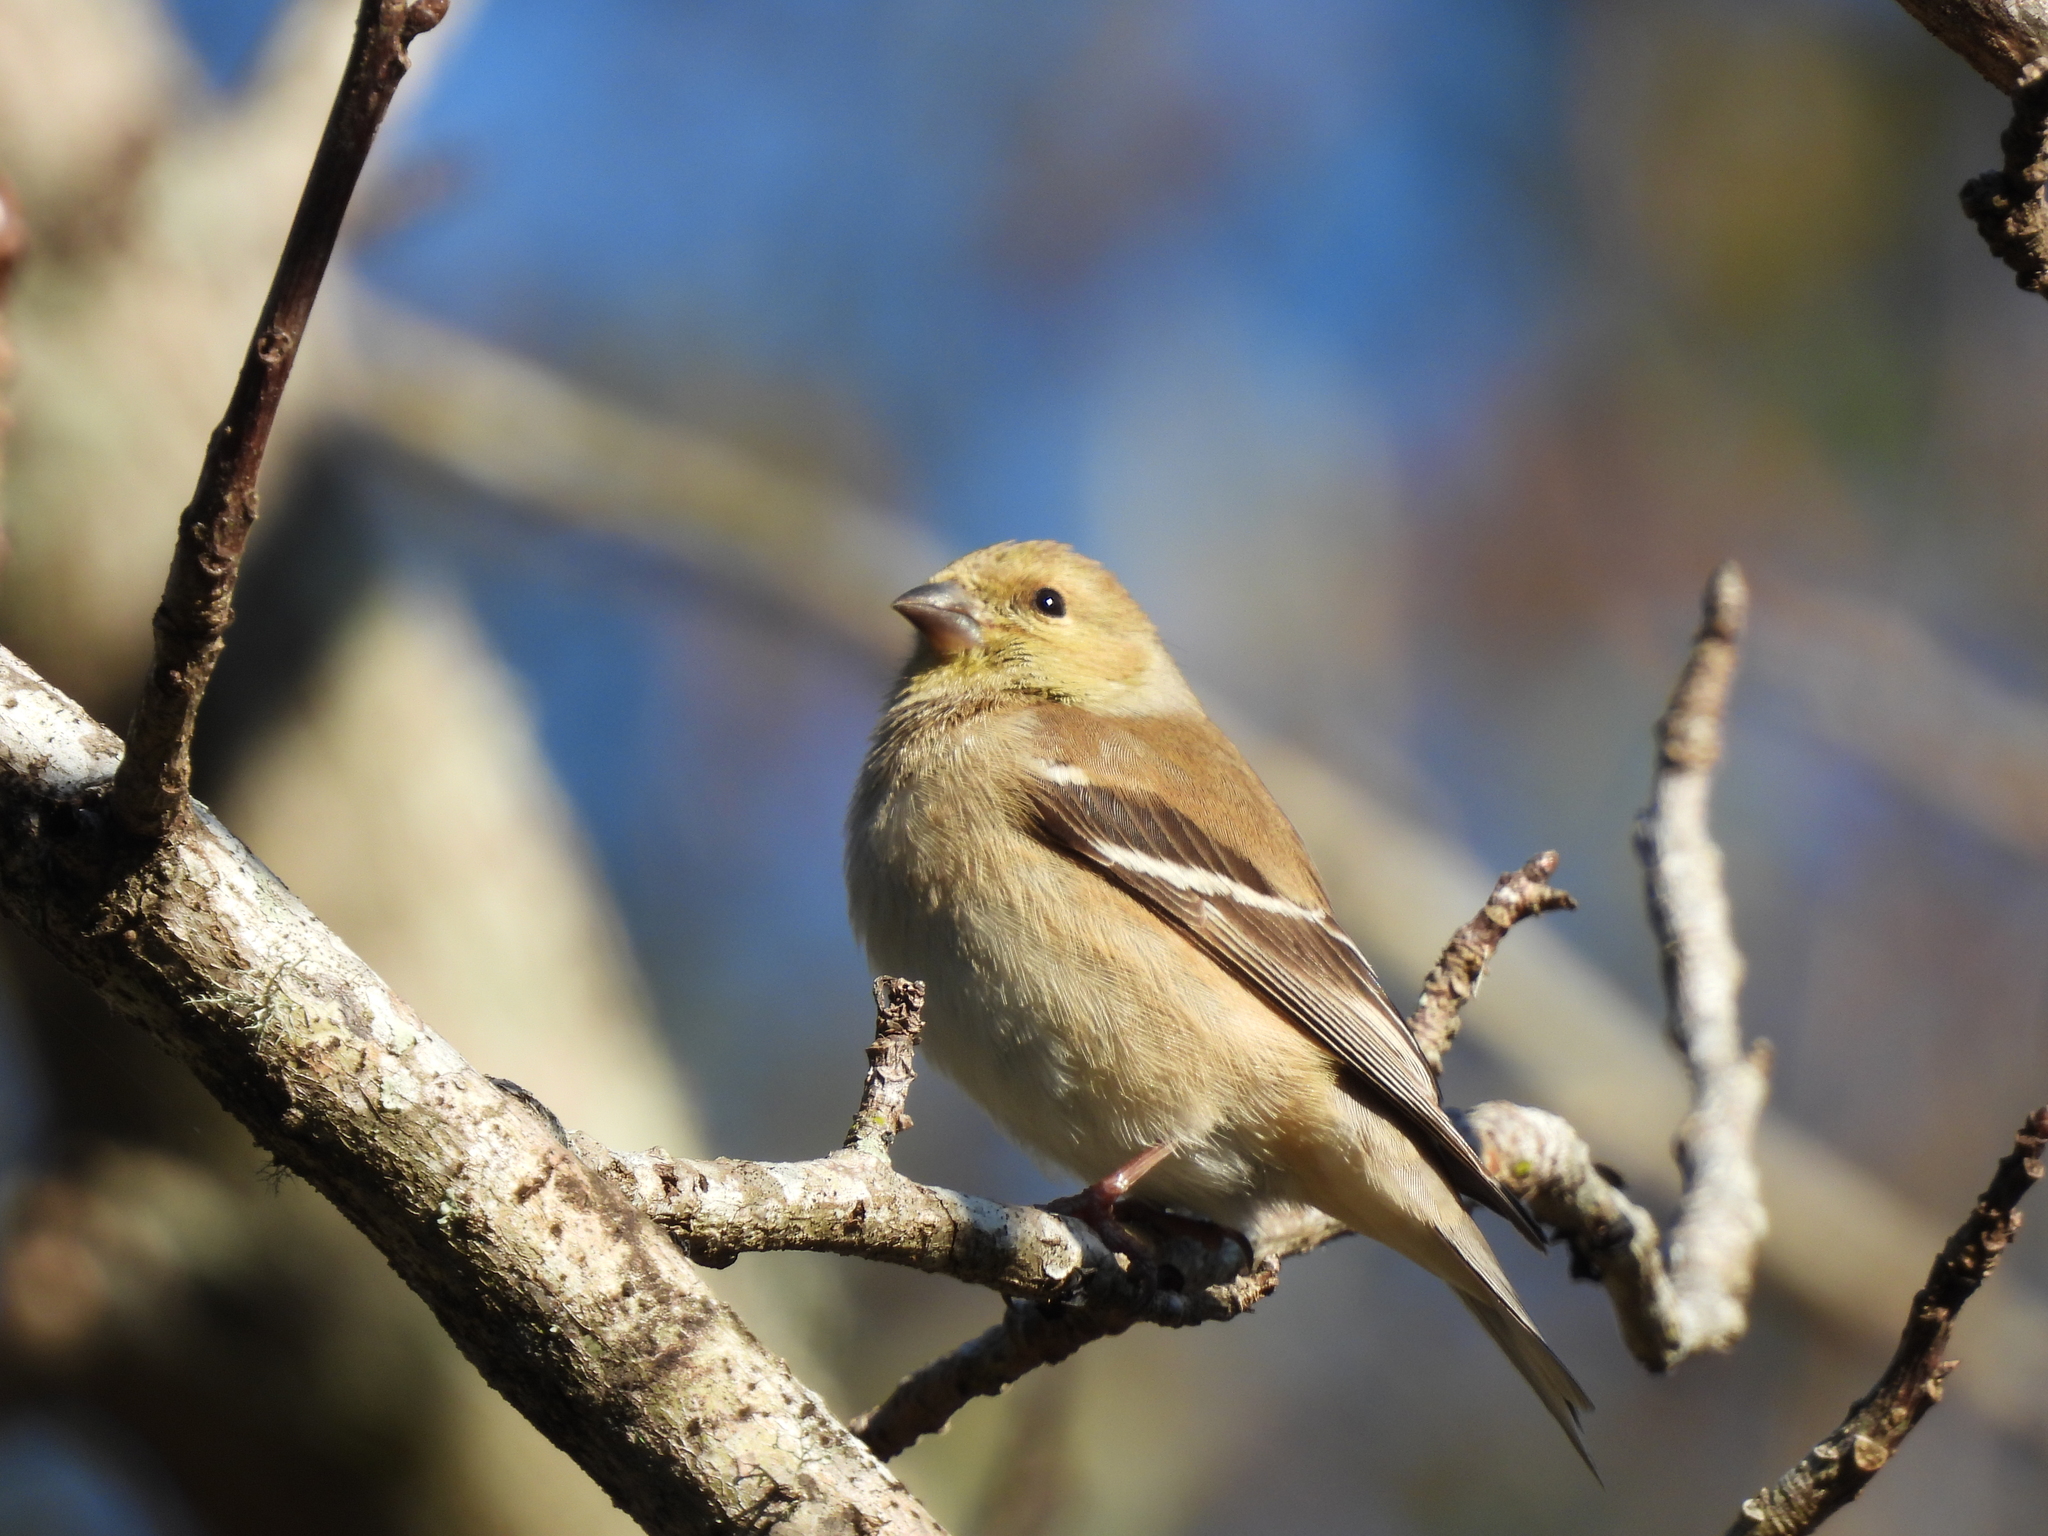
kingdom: Animalia
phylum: Chordata
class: Aves
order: Passeriformes
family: Fringillidae
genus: Spinus
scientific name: Spinus tristis
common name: American goldfinch
